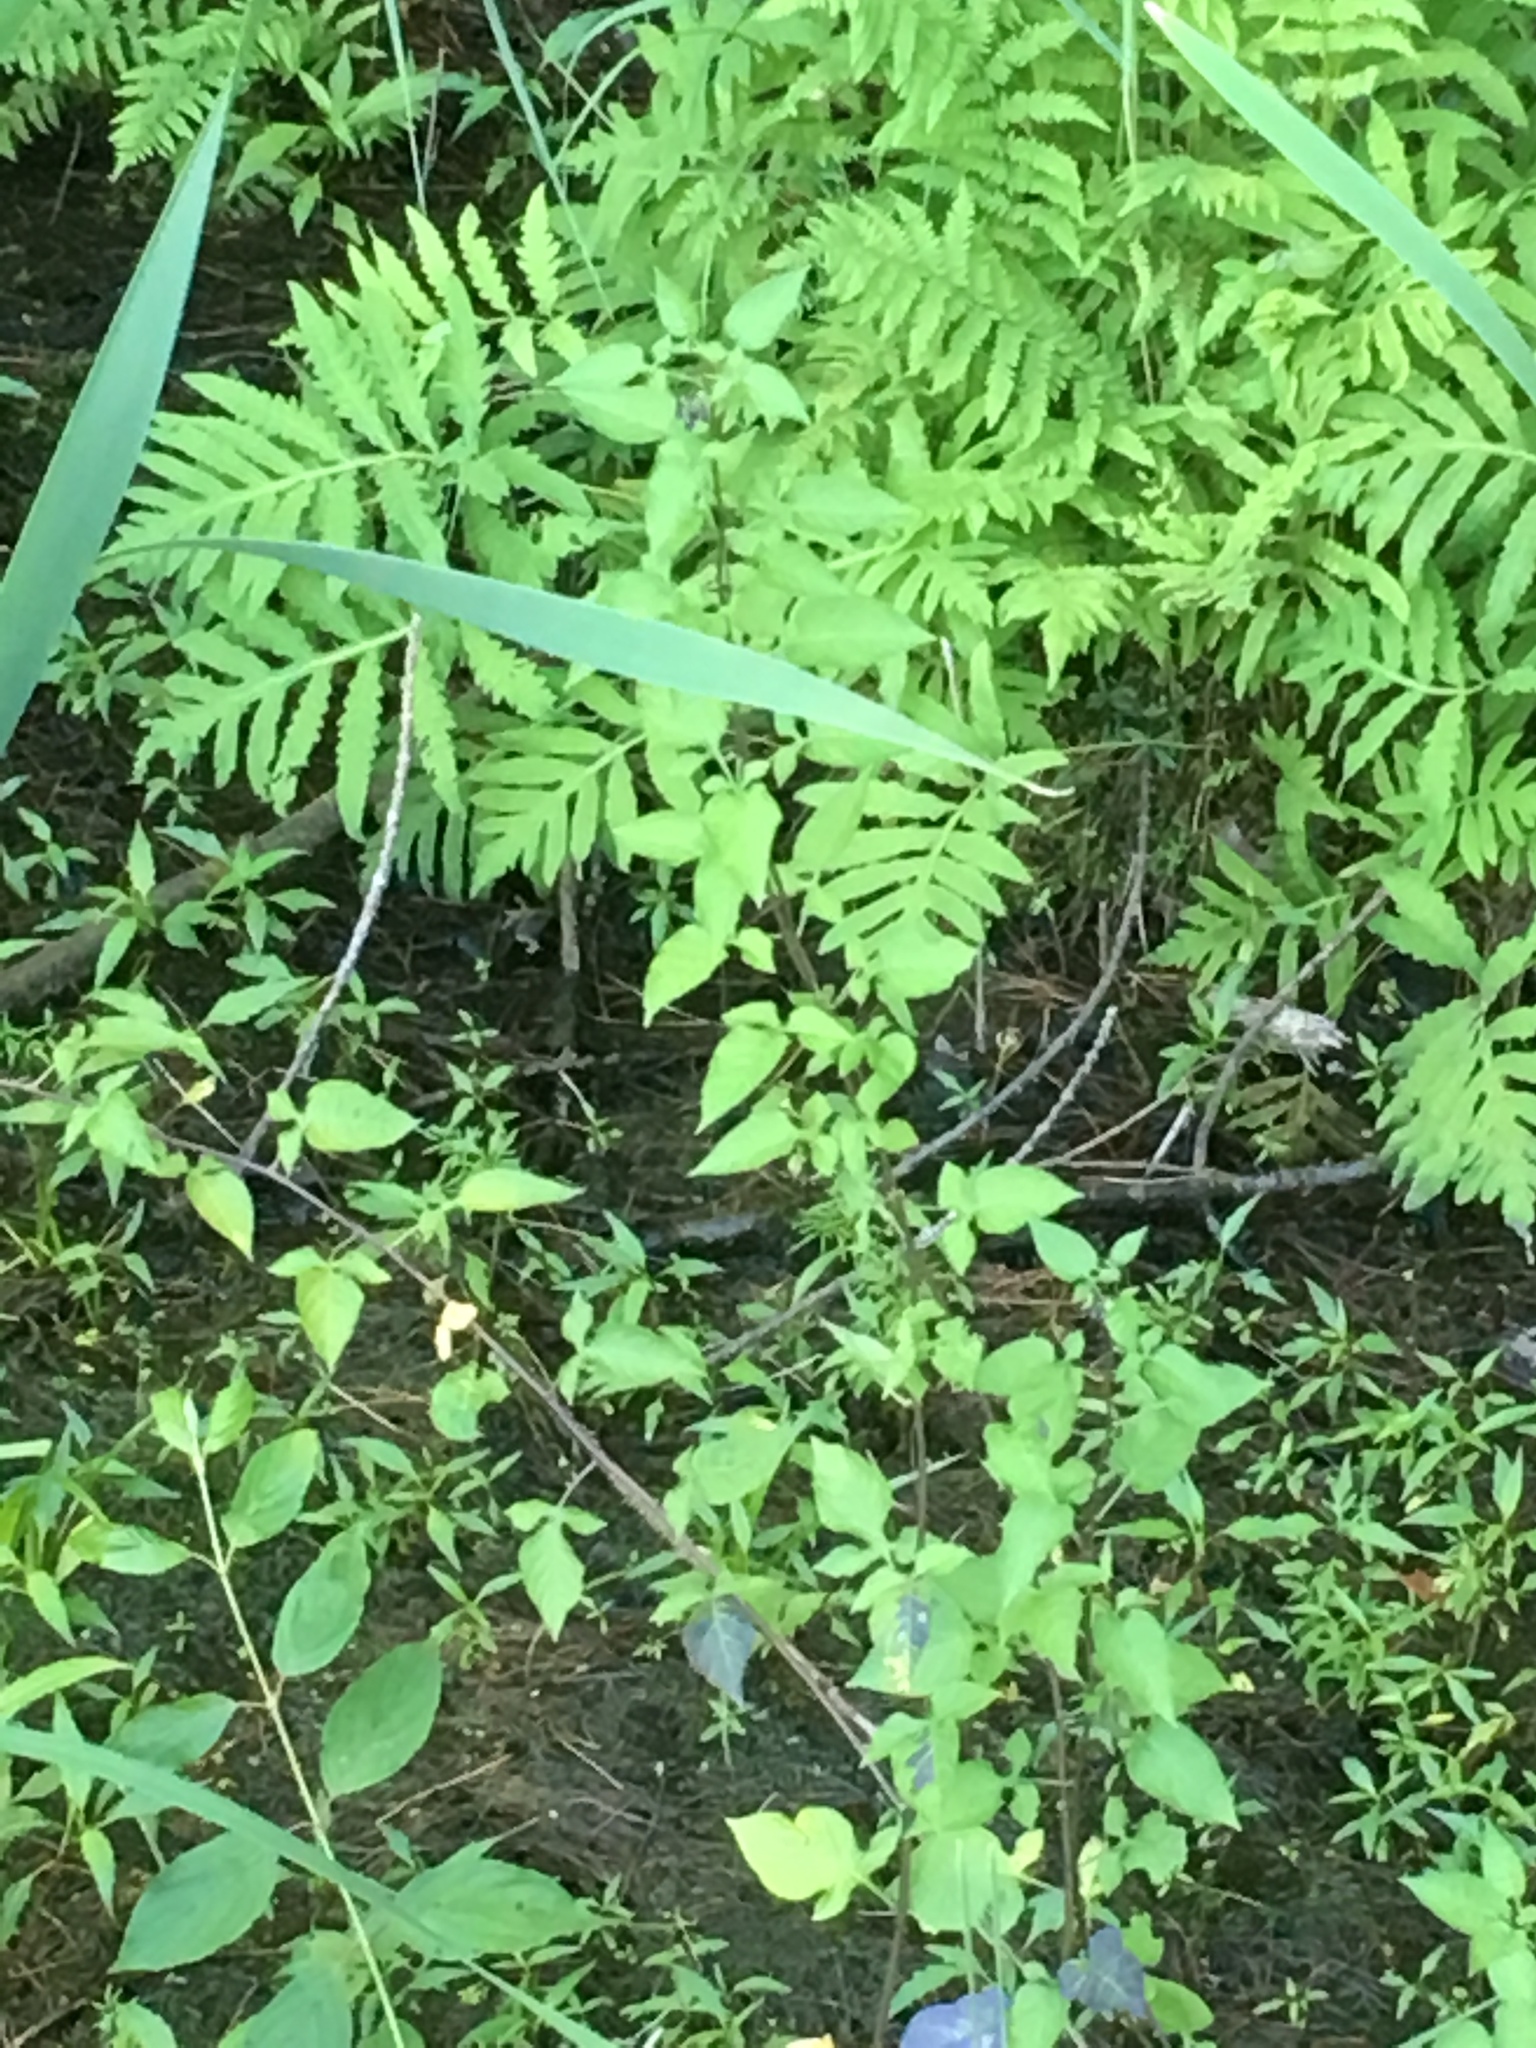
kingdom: Plantae
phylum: Tracheophyta
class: Magnoliopsida
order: Solanales
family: Solanaceae
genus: Solanum
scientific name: Solanum dulcamara
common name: Climbing nightshade
